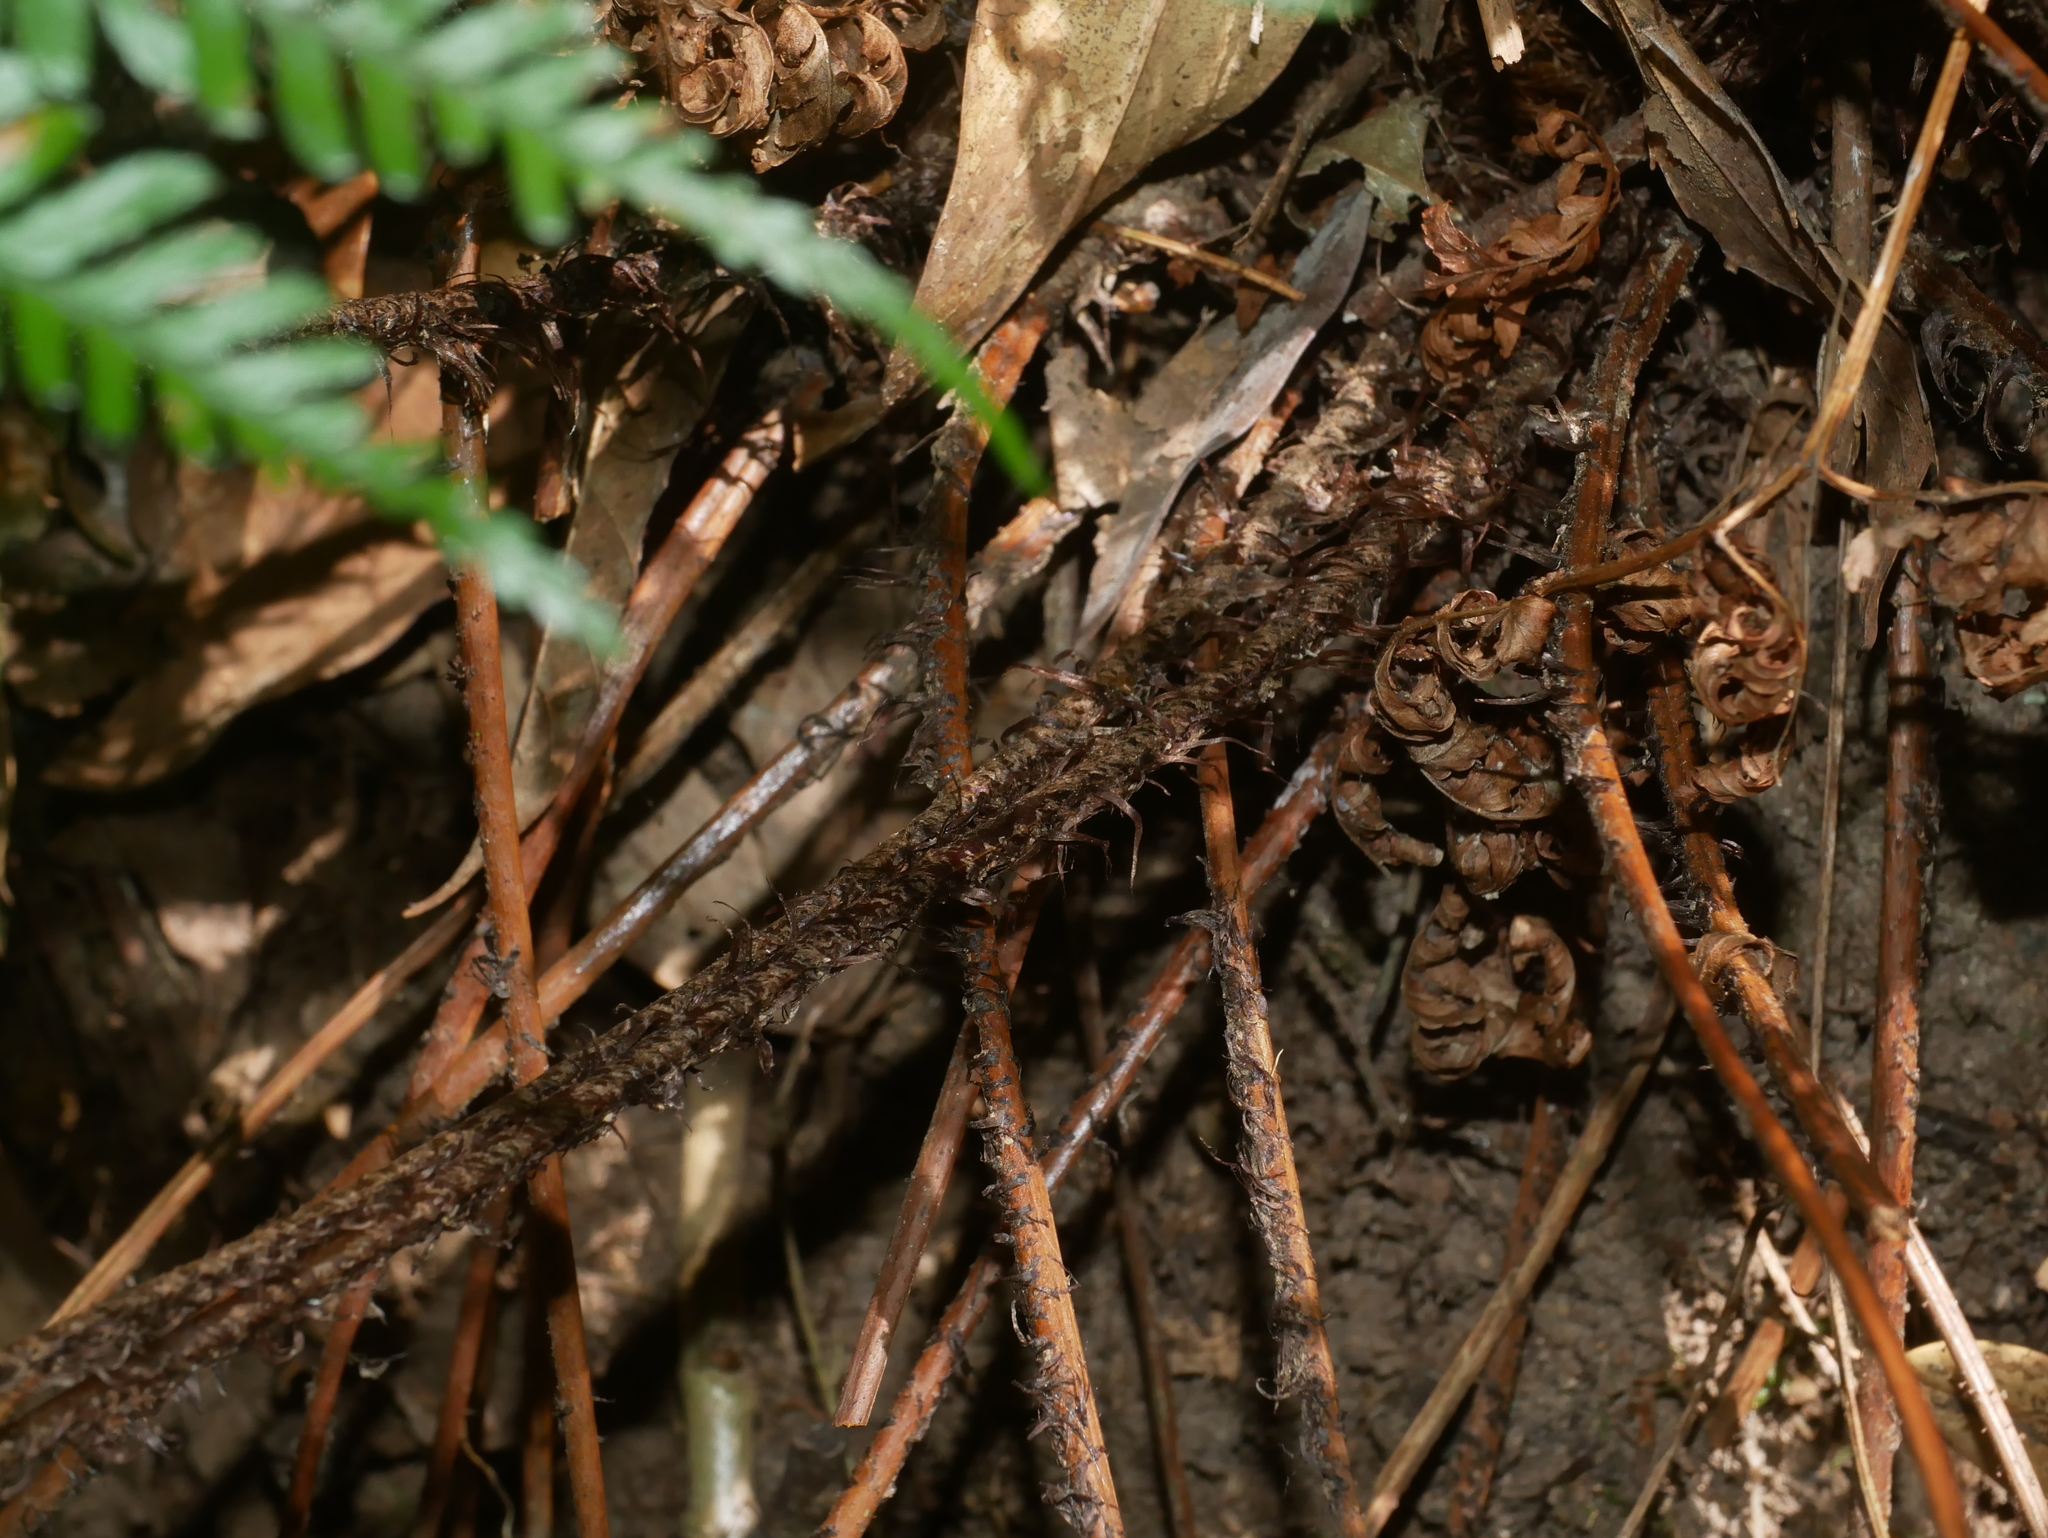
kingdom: Plantae
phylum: Tracheophyta
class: Polypodiopsida
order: Polypodiales
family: Dryopteridaceae
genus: Dryopteris
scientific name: Dryopteris sparsa
